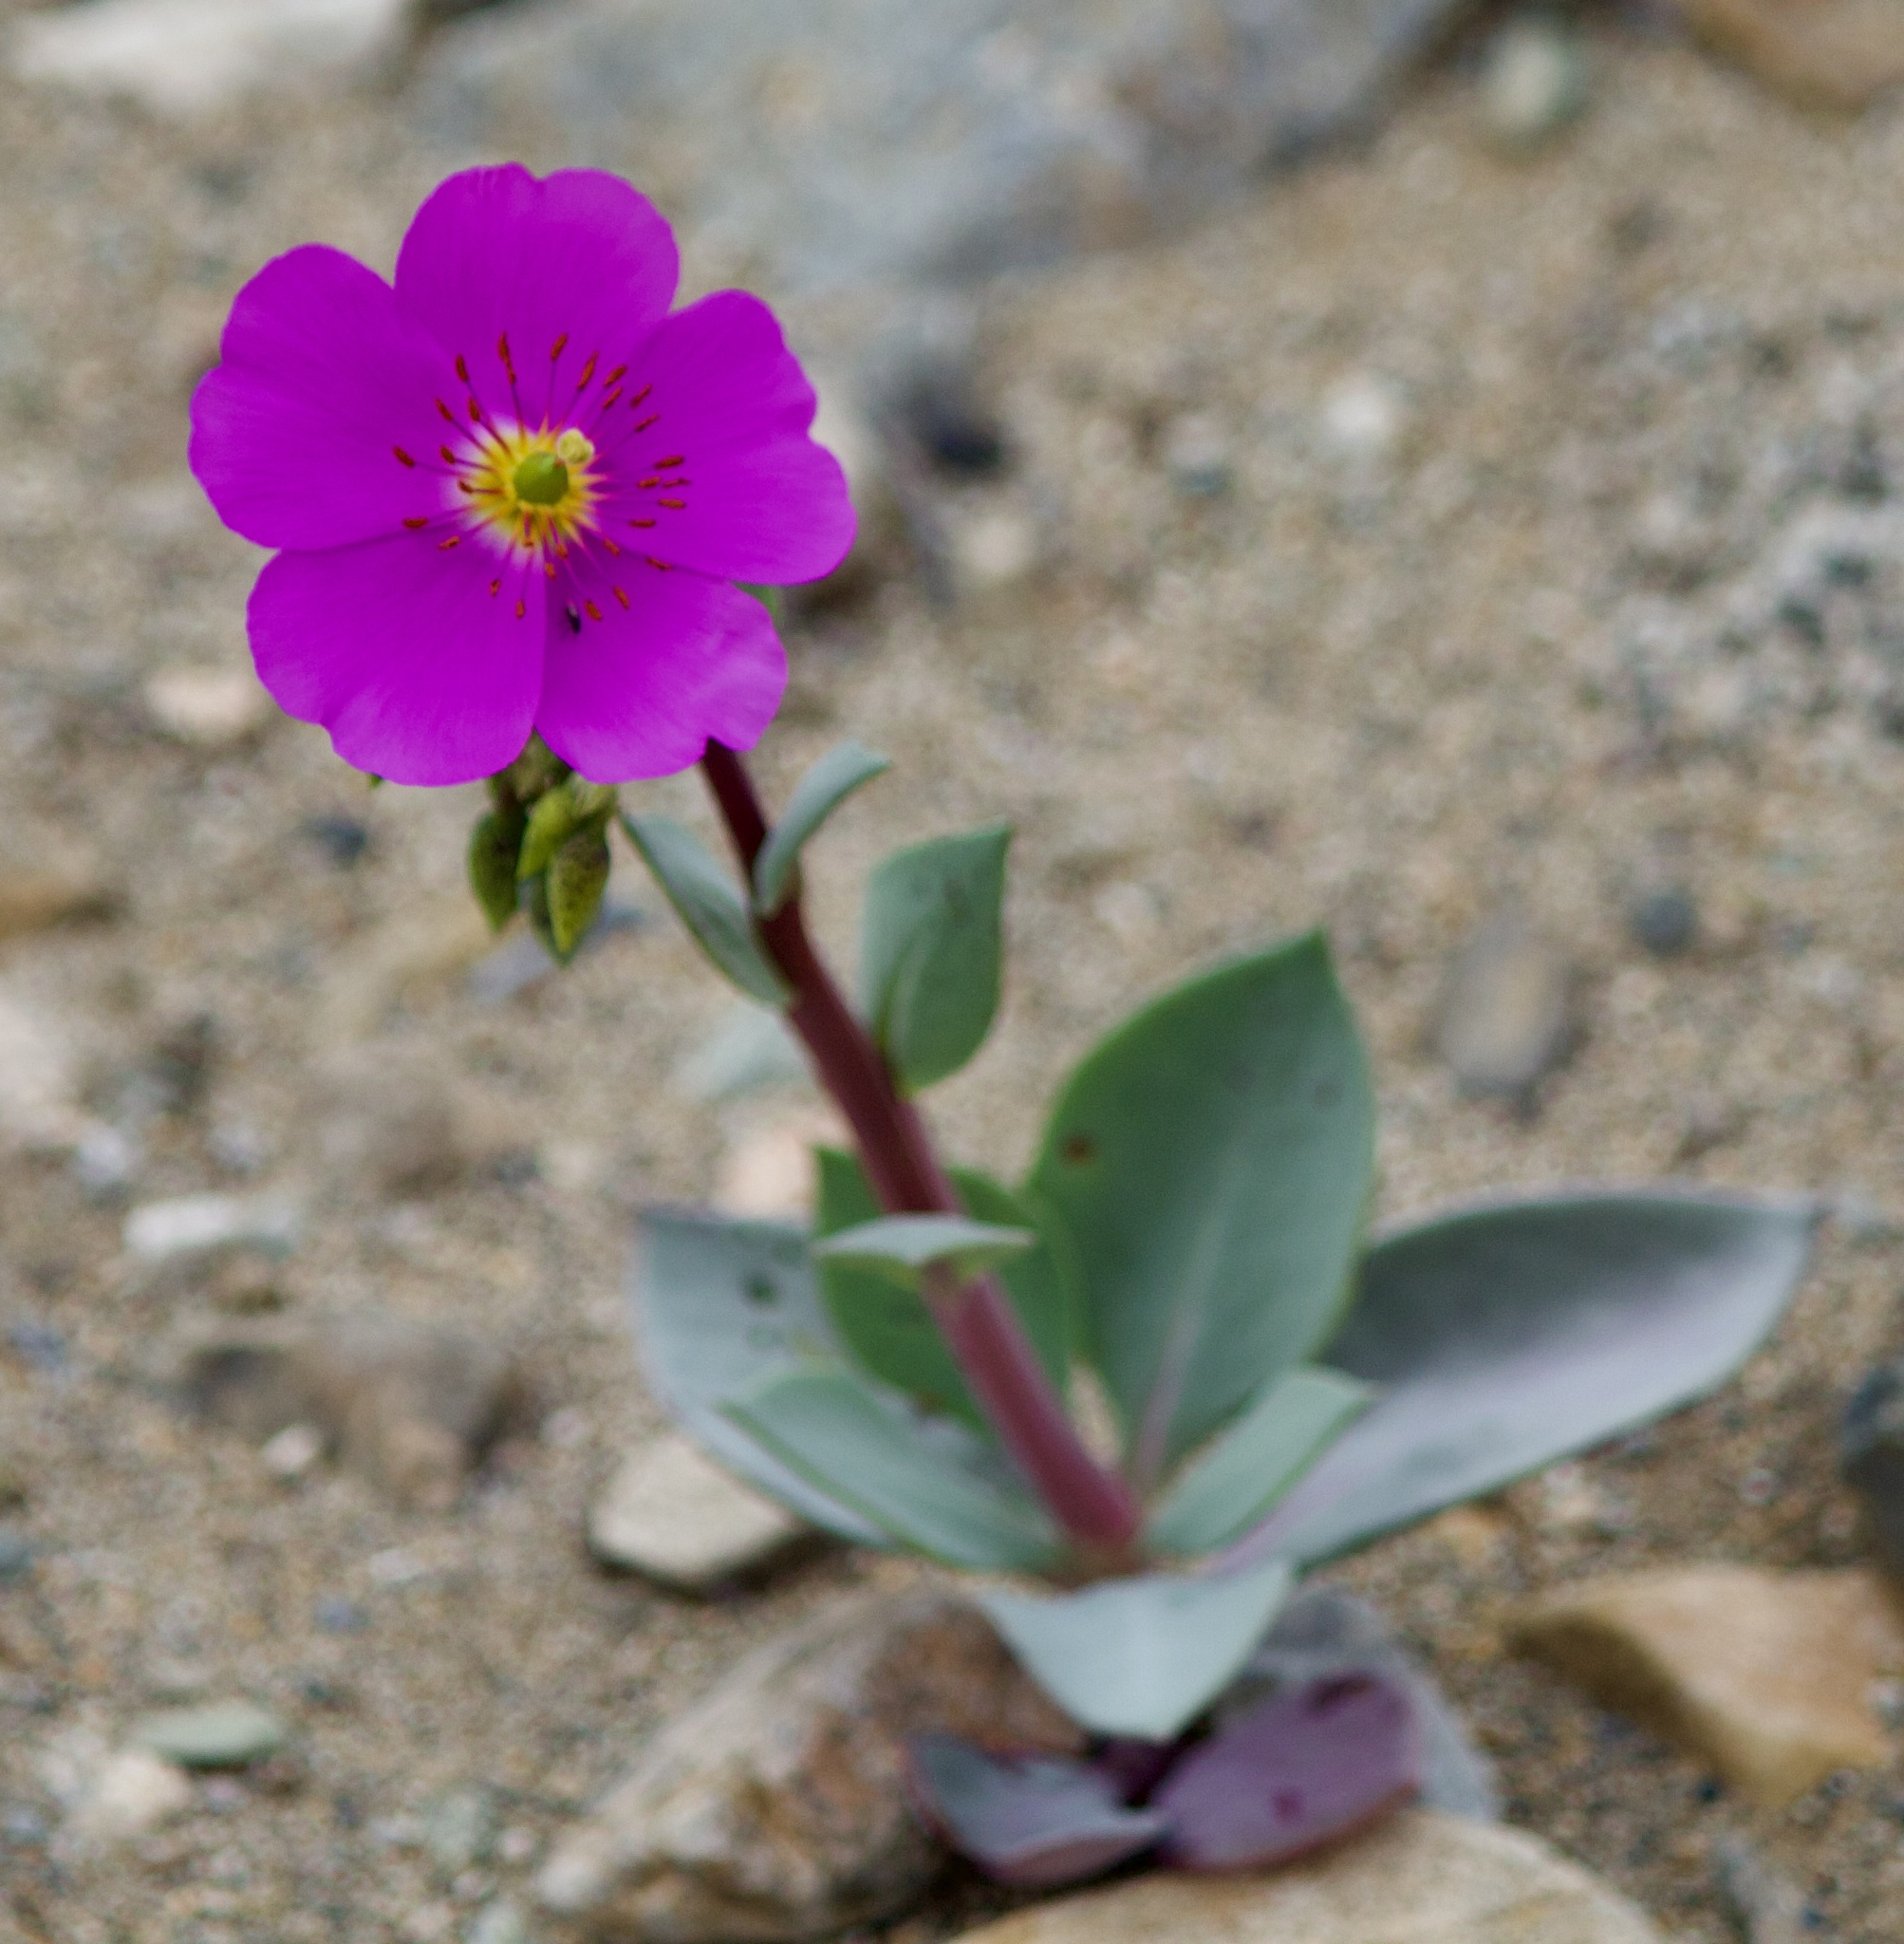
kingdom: Plantae
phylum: Tracheophyta
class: Magnoliopsida
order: Caryophyllales
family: Montiaceae
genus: Cistanthe
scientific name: Cistanthe grandiflora
